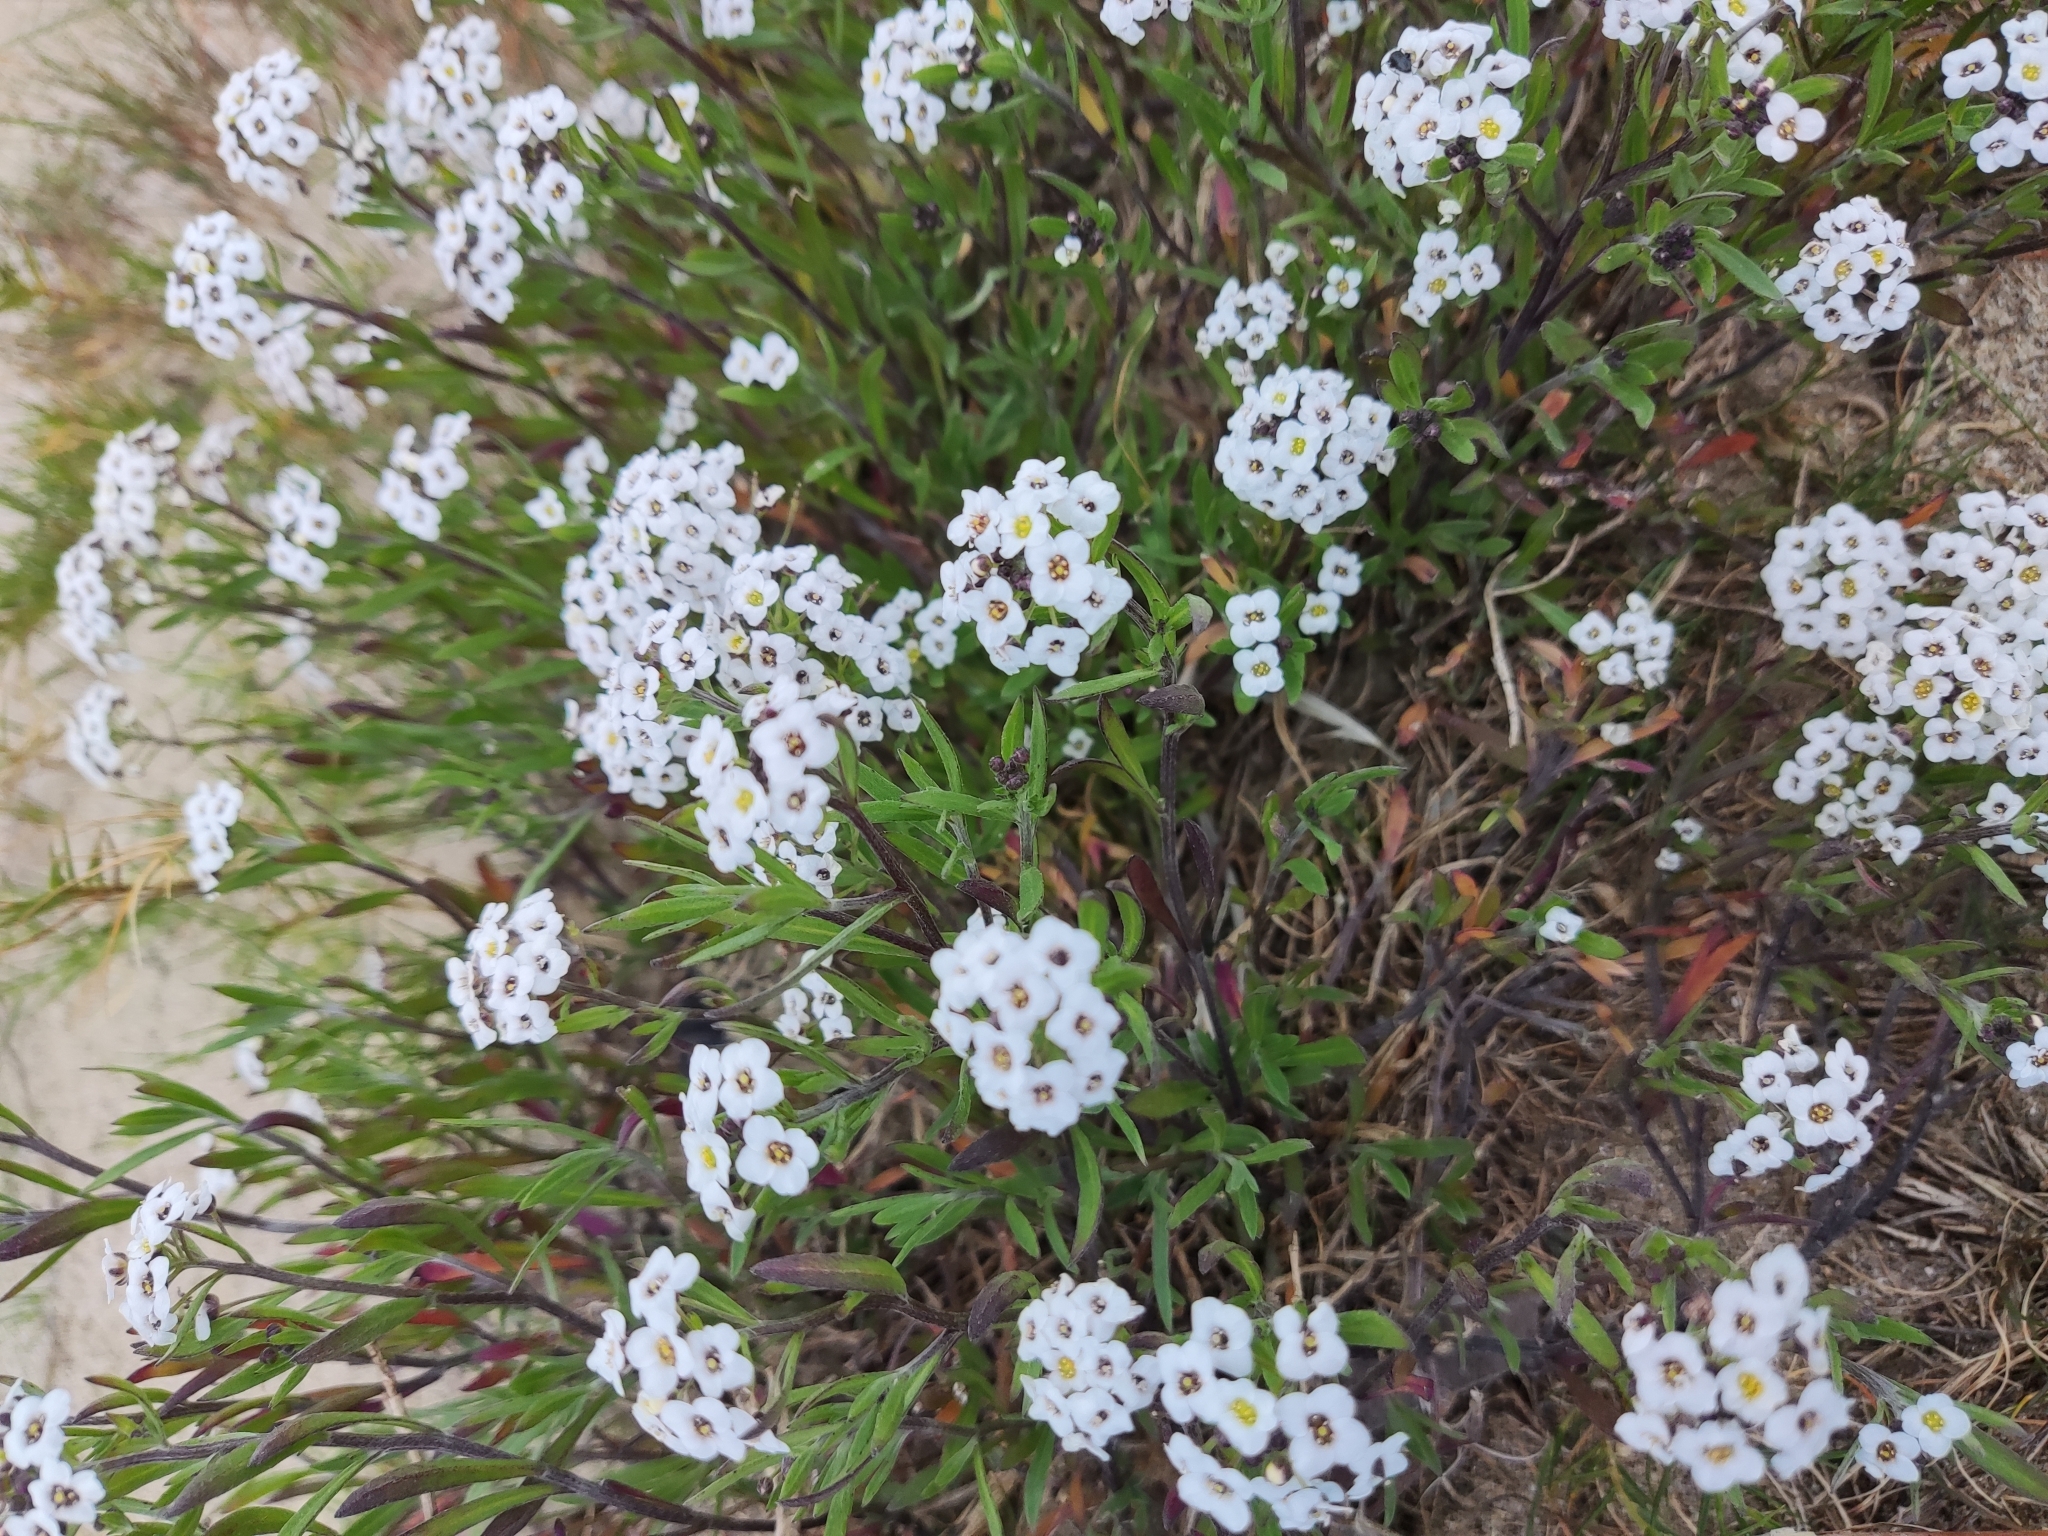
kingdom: Plantae
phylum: Tracheophyta
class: Magnoliopsida
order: Brassicales
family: Brassicaceae
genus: Lobularia
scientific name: Lobularia maritima
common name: Sweet alison
